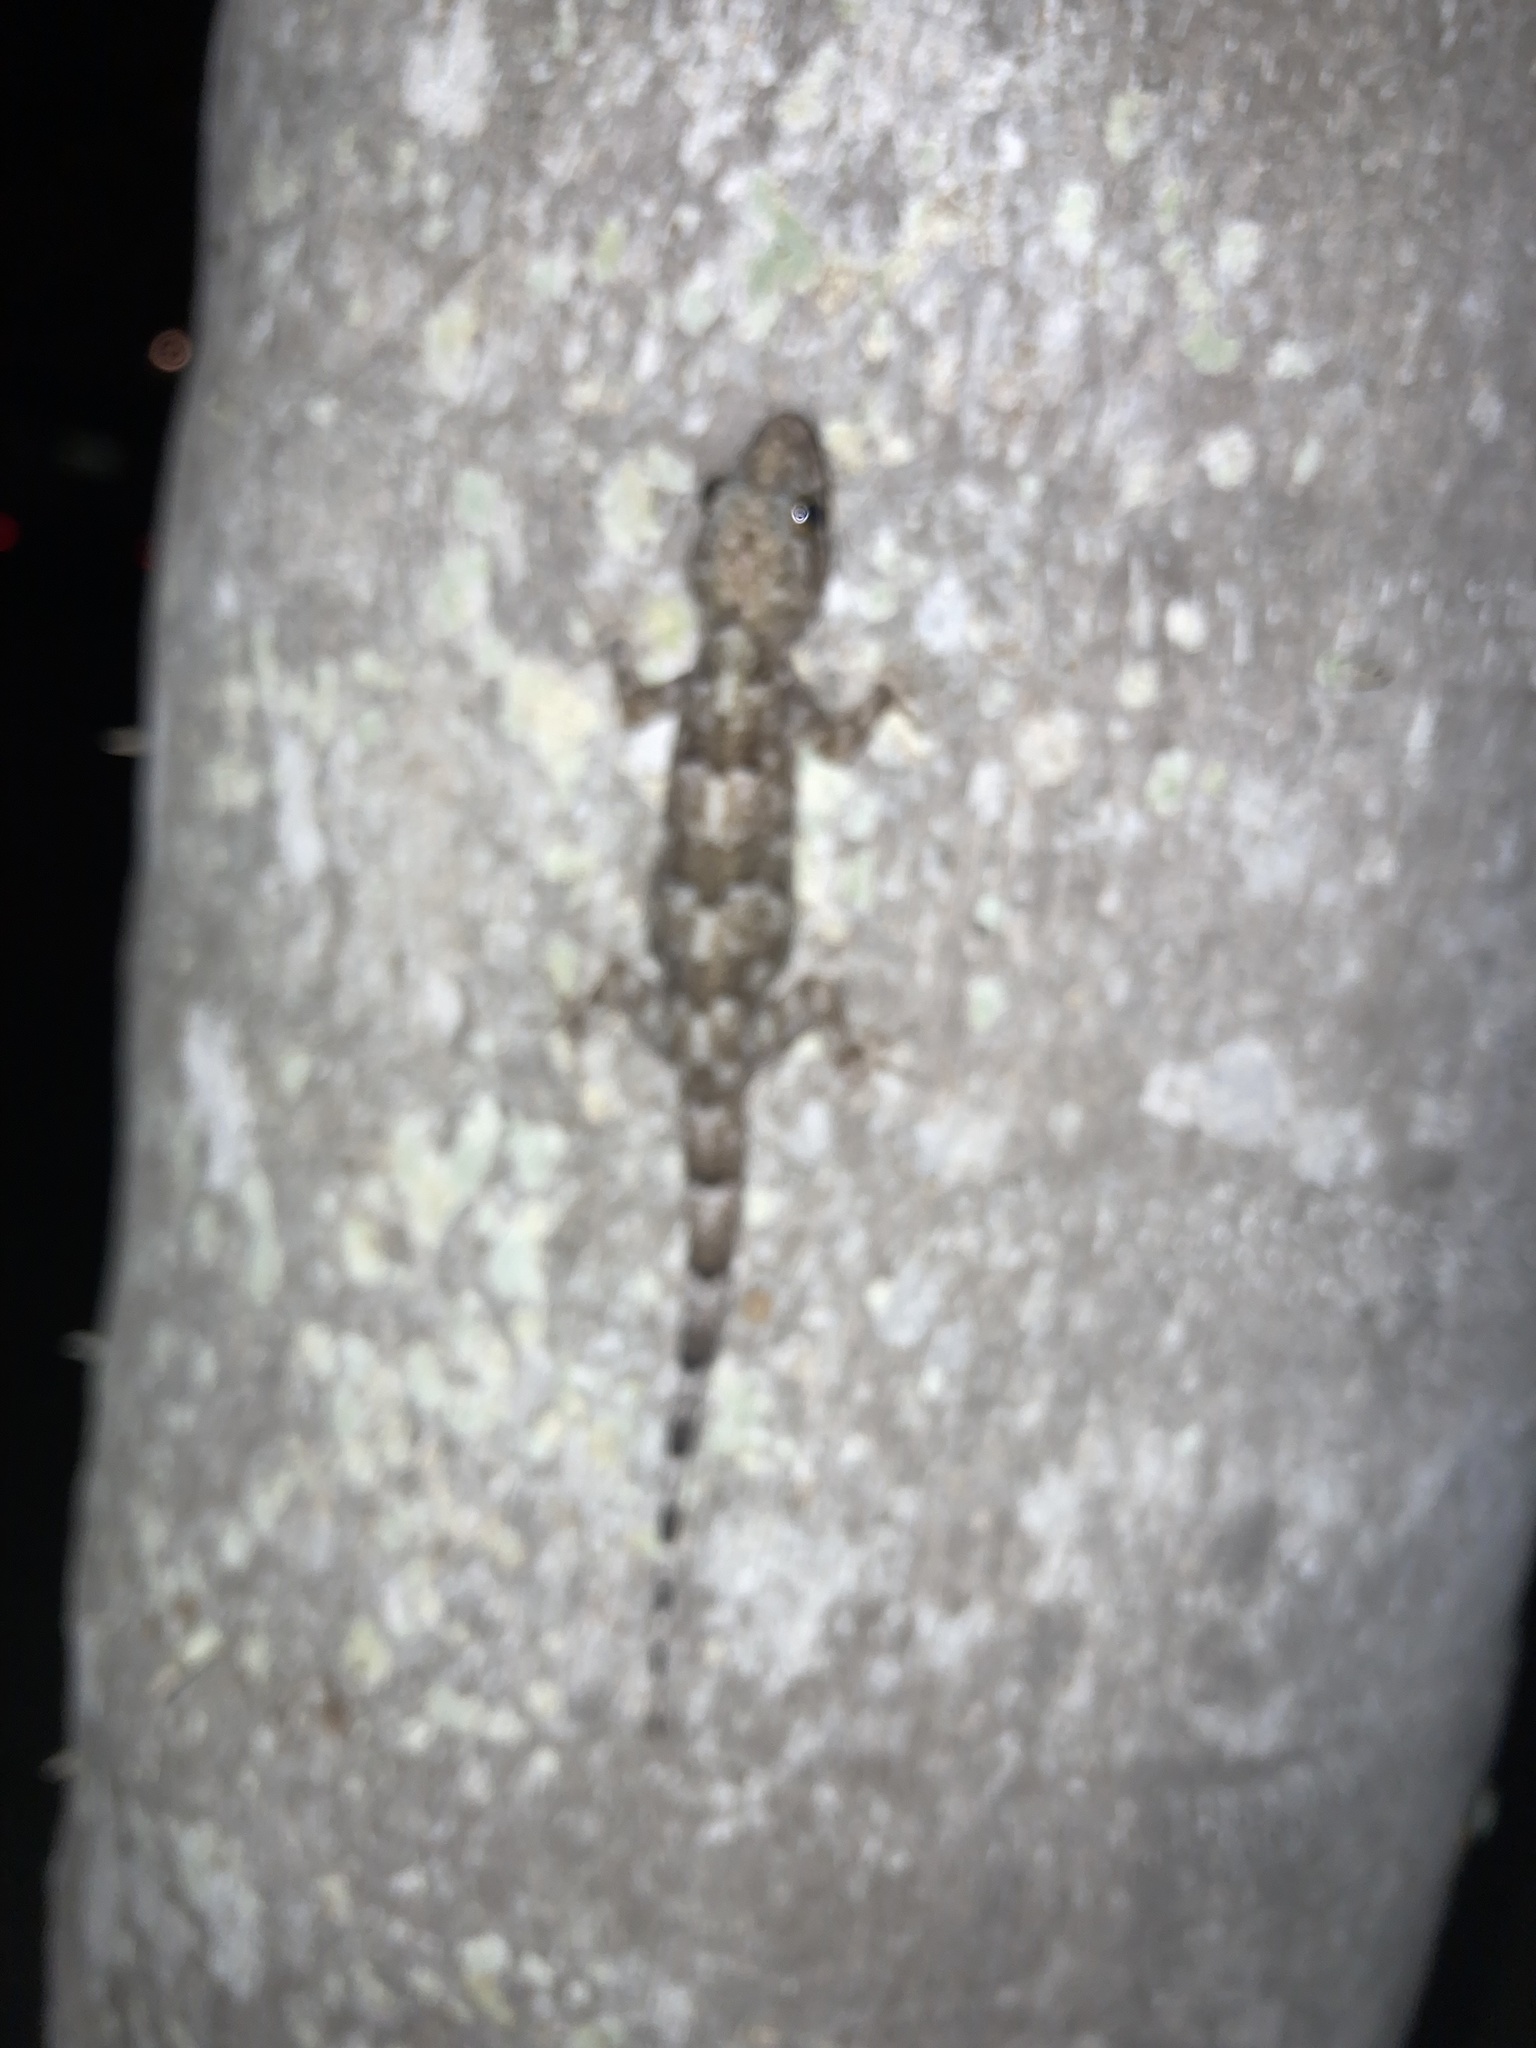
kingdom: Animalia
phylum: Chordata
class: Squamata
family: Gekkonidae
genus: Hemidactylus
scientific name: Hemidactylus mabouia
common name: House gecko
